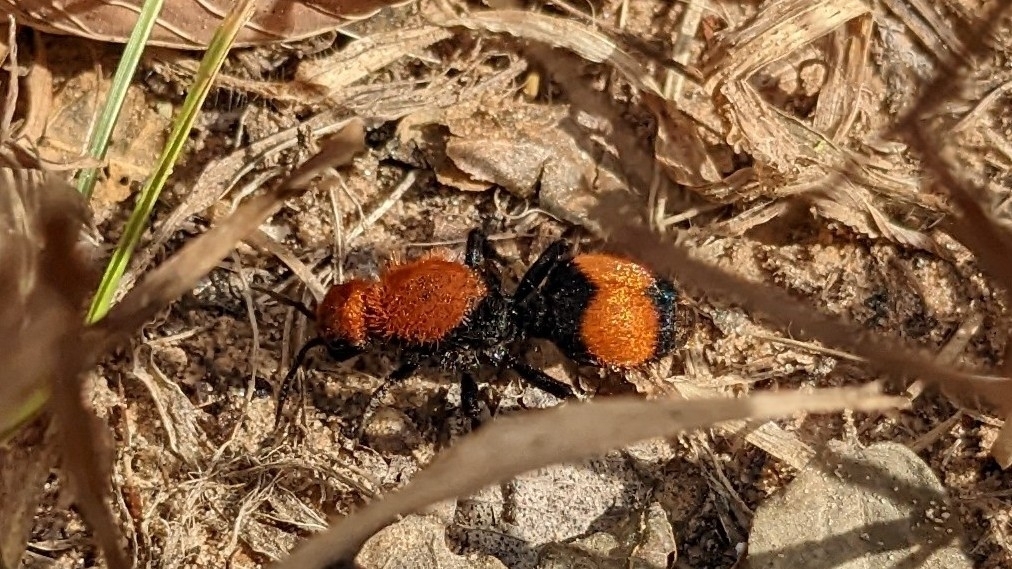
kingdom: Animalia
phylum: Arthropoda
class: Insecta
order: Hymenoptera
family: Mutillidae
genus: Dasymutilla
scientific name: Dasymutilla occidentalis
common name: Common eastern velvet ant
